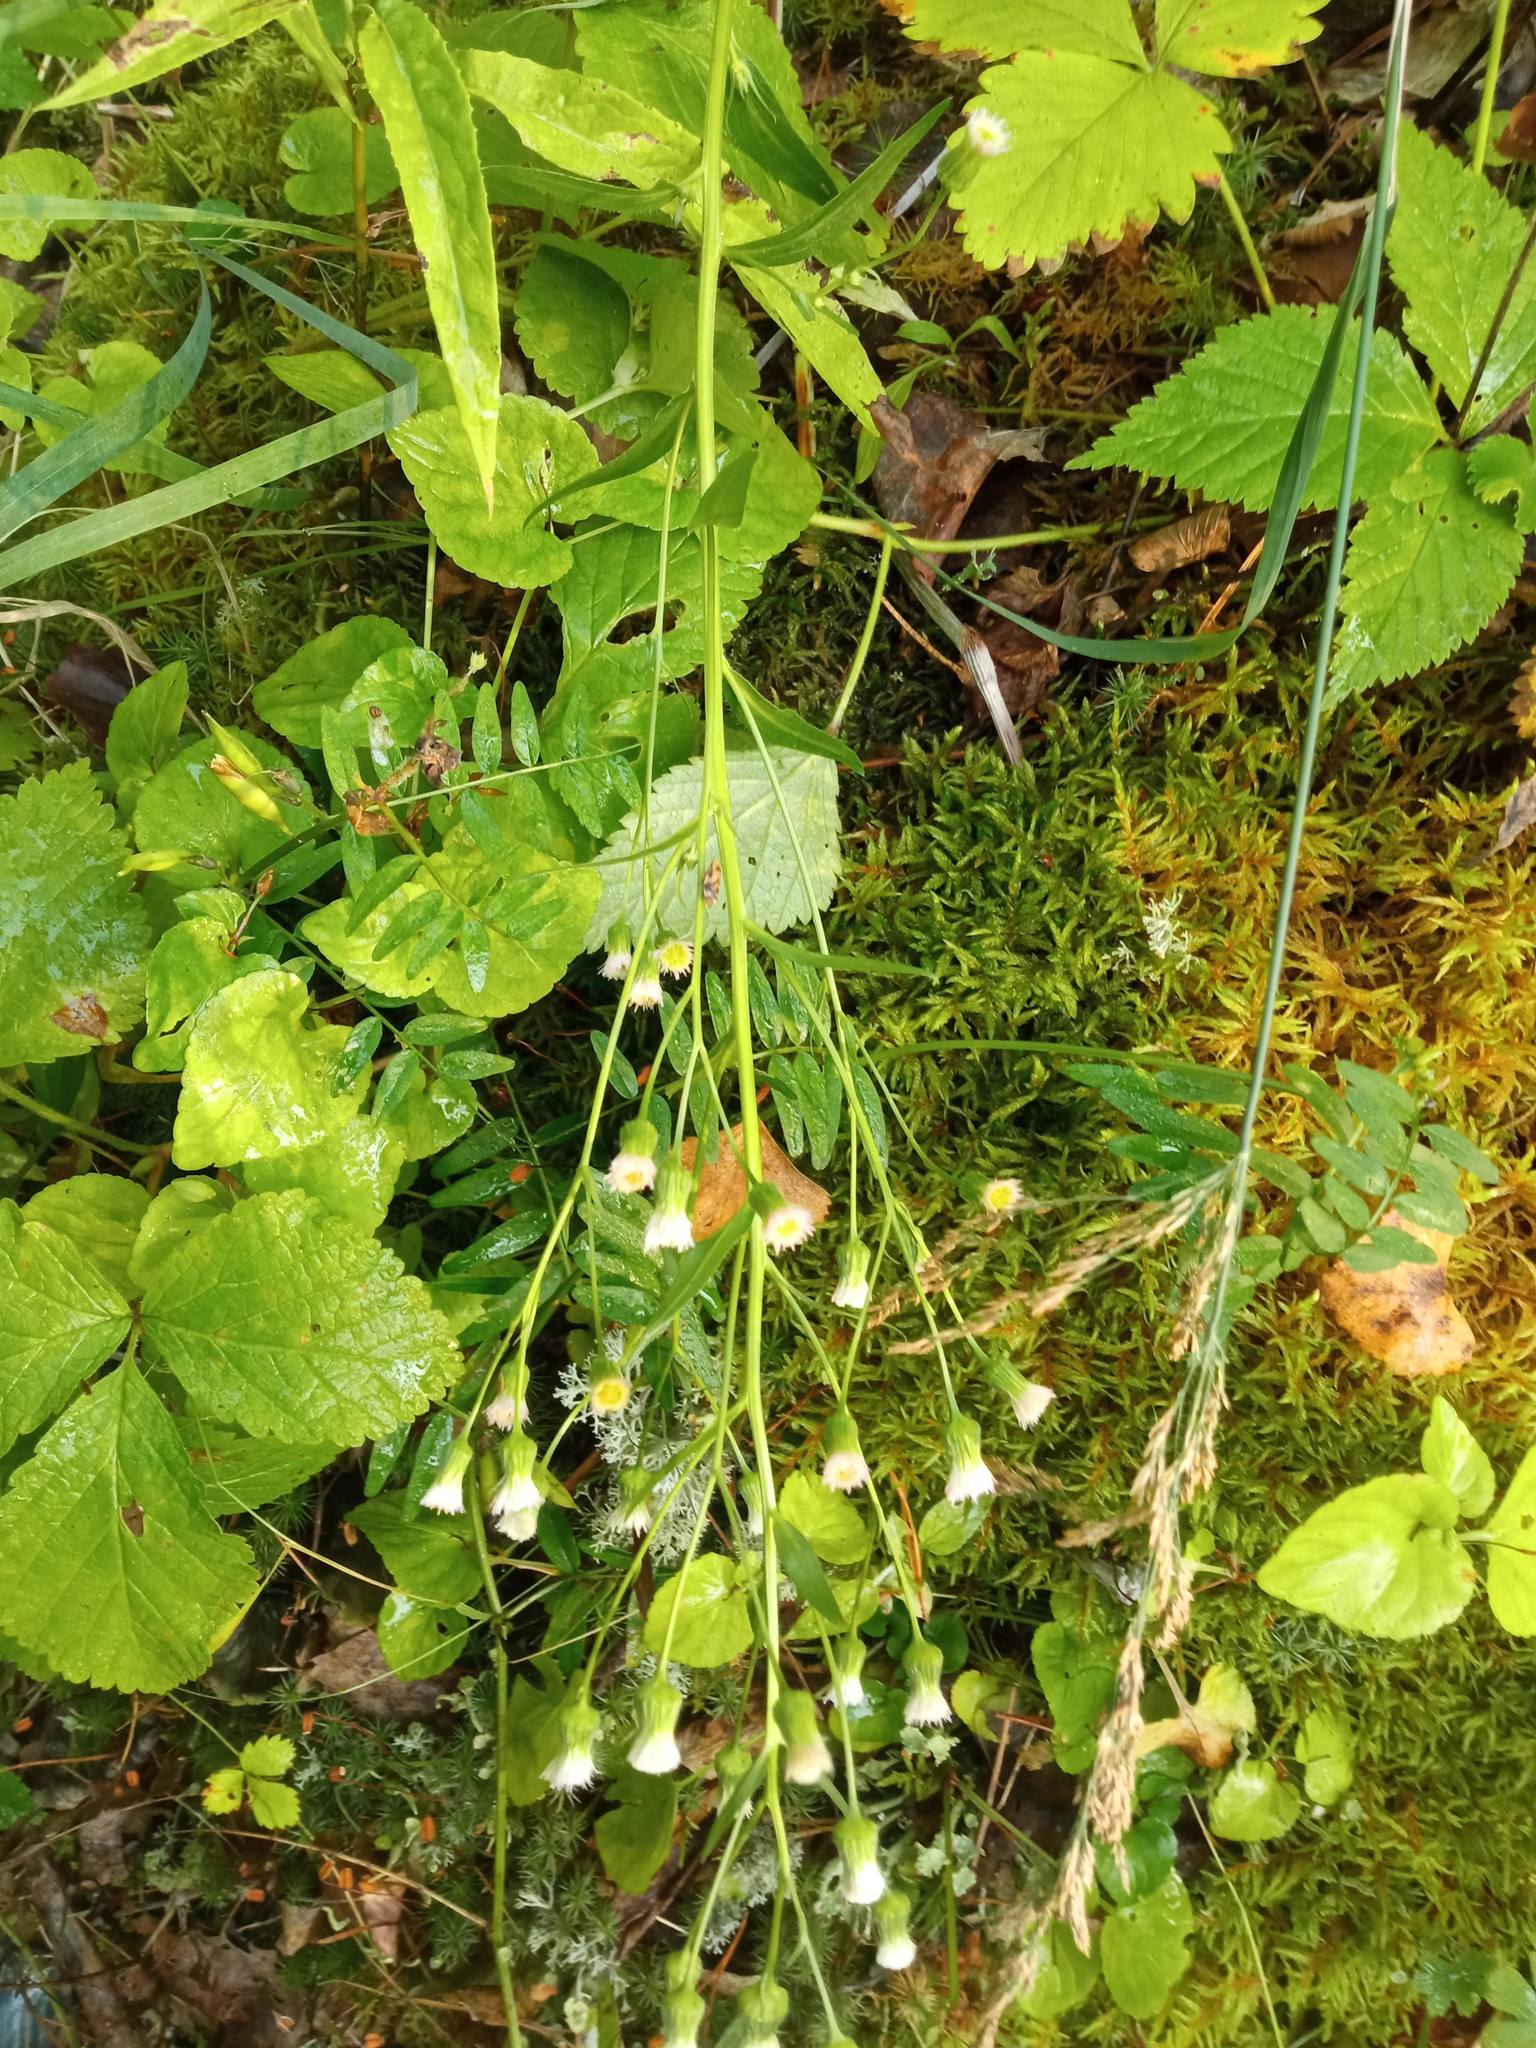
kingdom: Plantae
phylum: Tracheophyta
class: Magnoliopsida
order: Asterales
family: Asteraceae
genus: Erigeron
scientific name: Erigeron acris
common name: Blue fleabane
